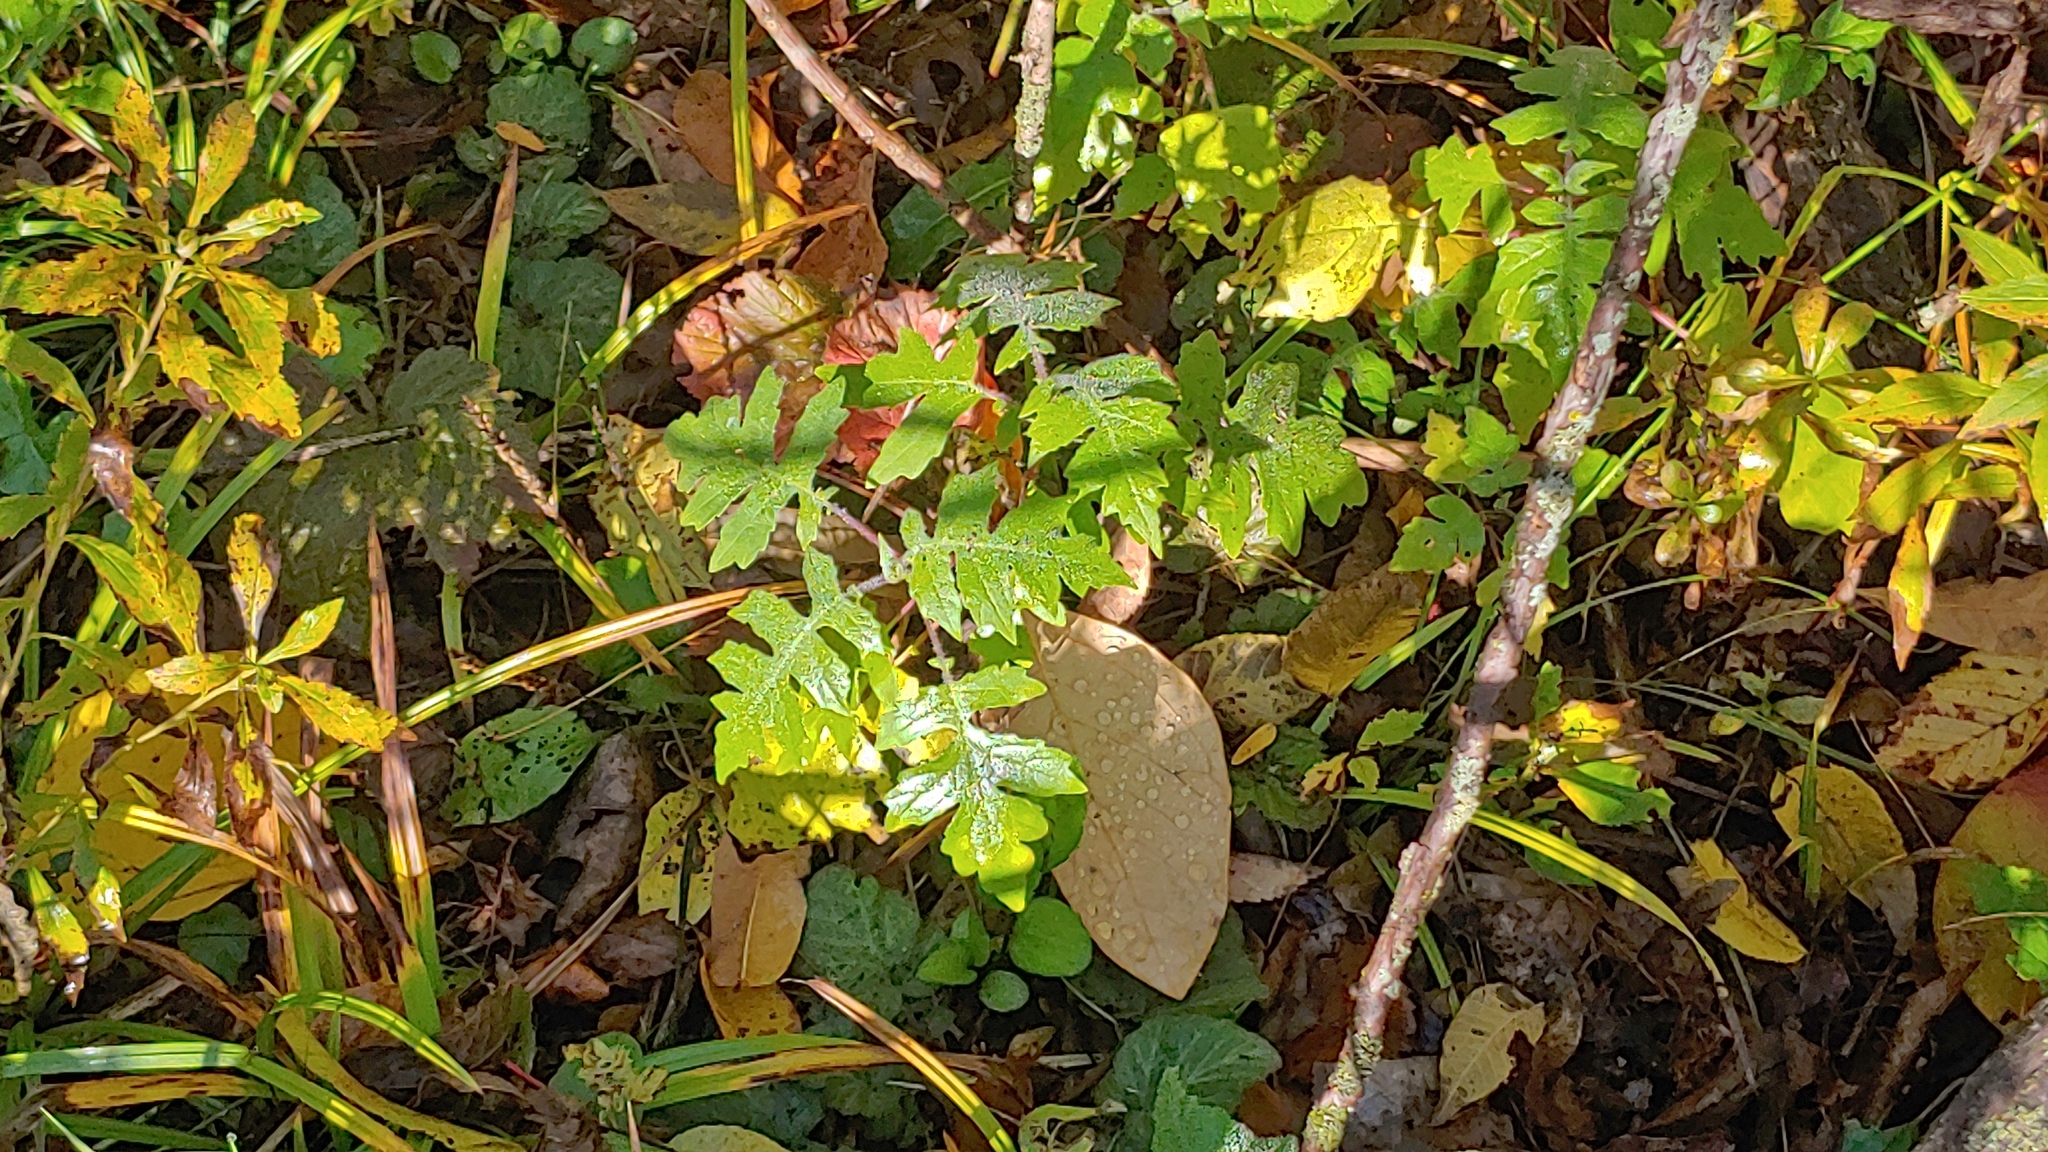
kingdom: Plantae
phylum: Tracheophyta
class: Magnoliopsida
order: Asterales
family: Asteraceae
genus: Polymnia
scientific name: Polymnia canadensis
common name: Pale-flowered leafcup
